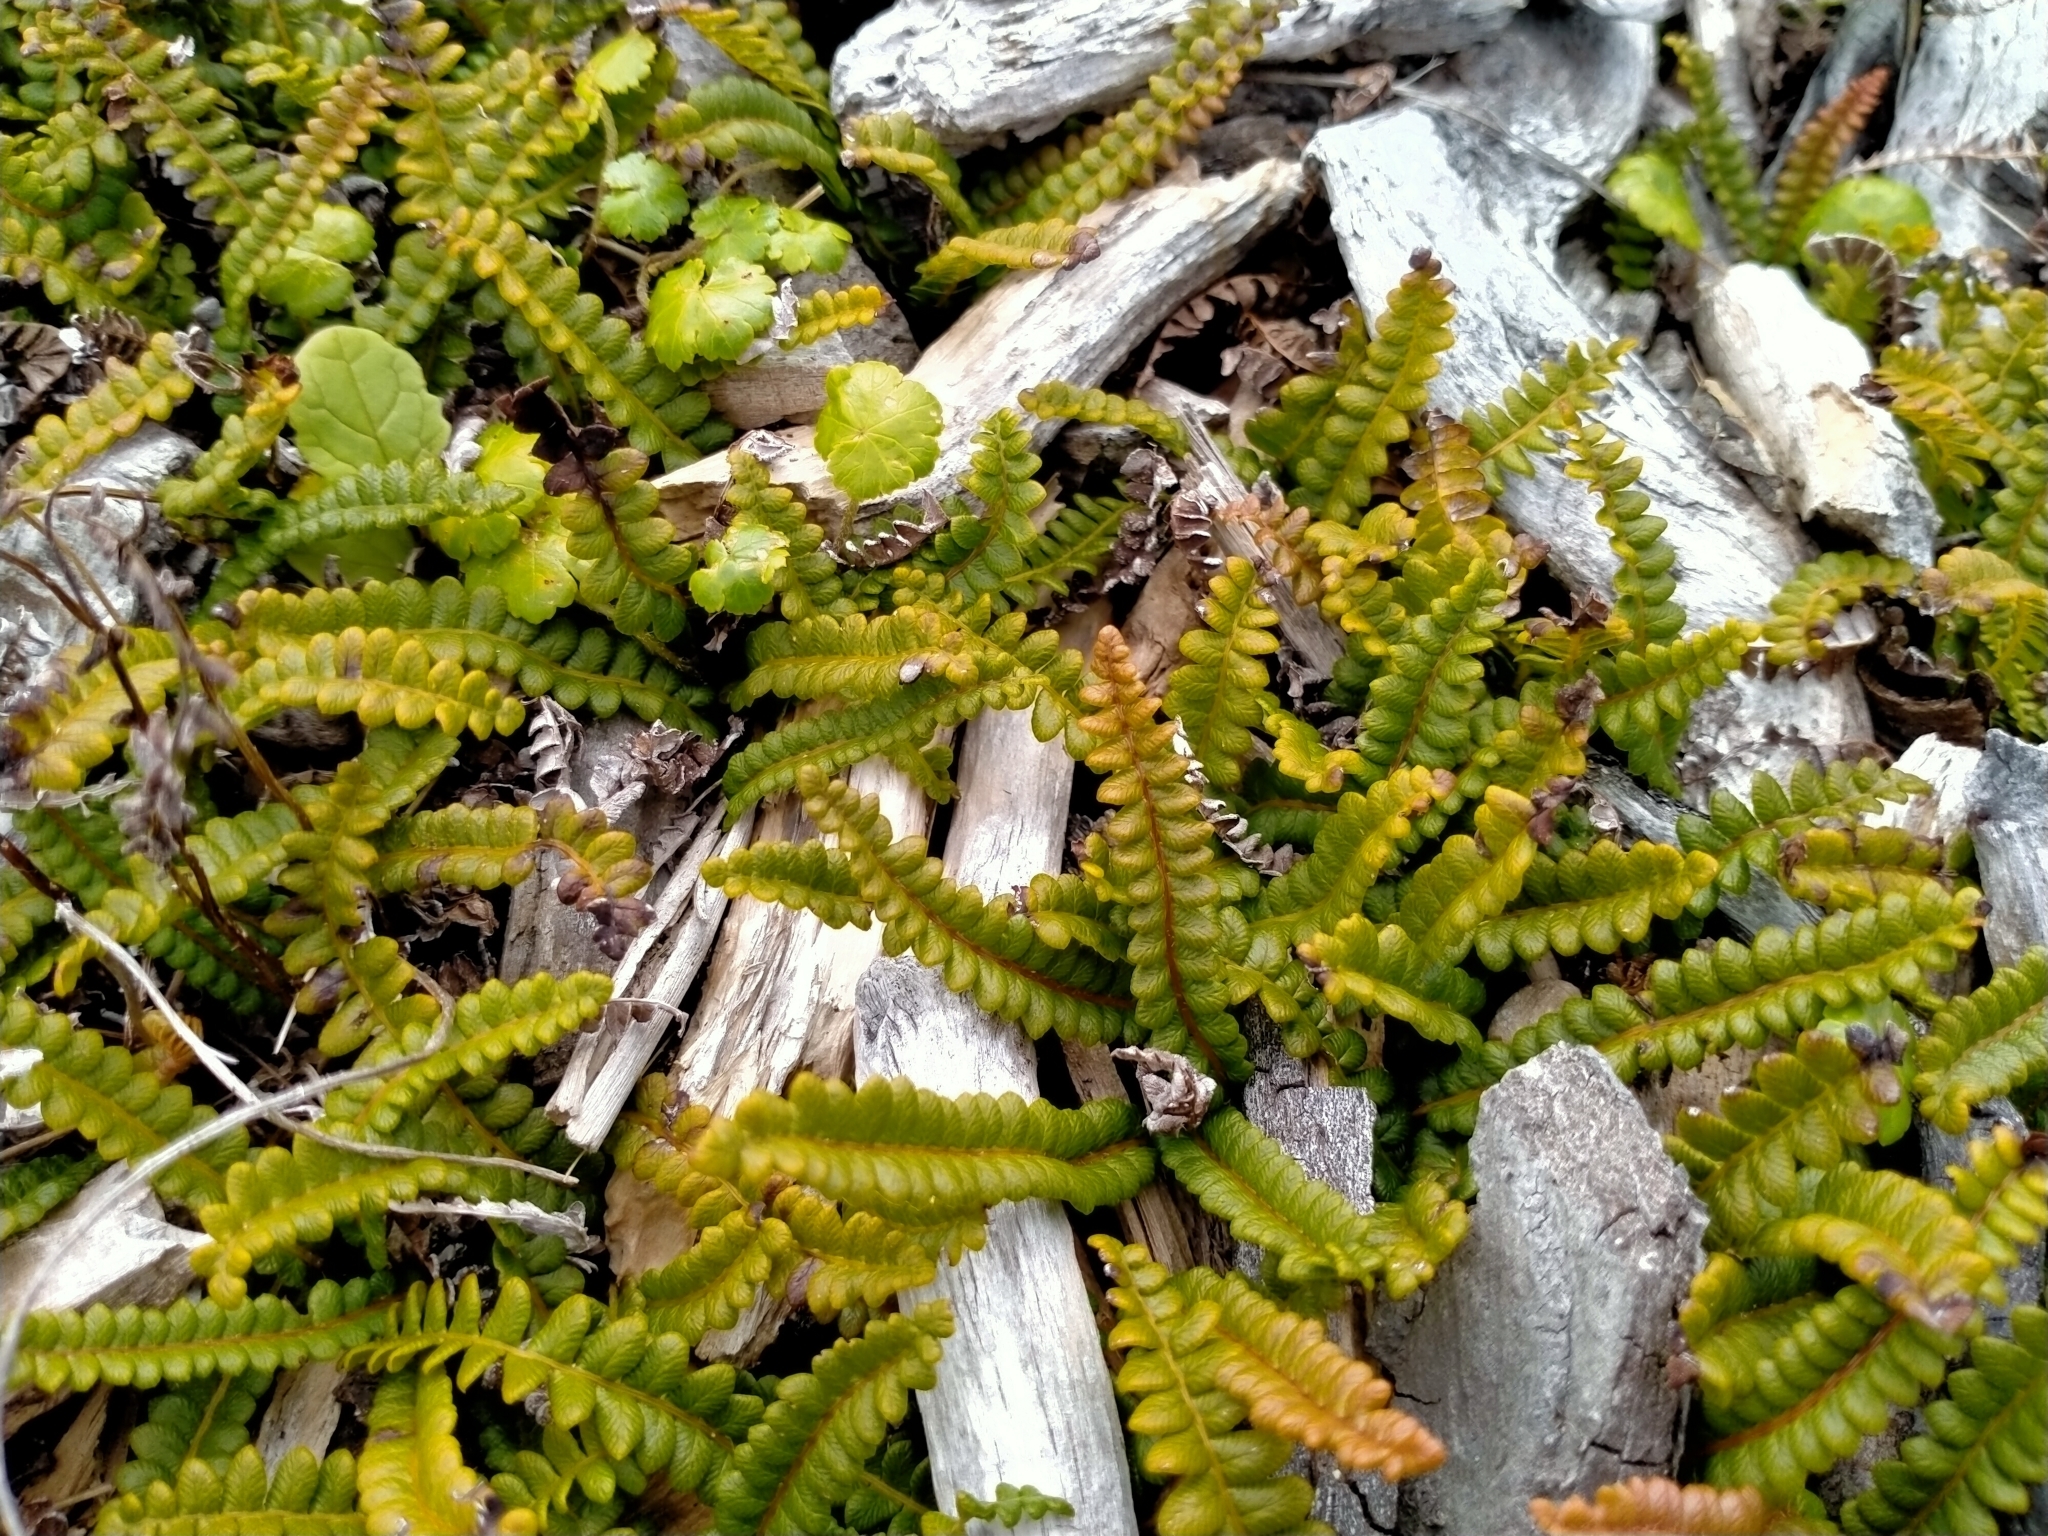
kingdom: Plantae
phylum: Tracheophyta
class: Polypodiopsida
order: Polypodiales
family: Blechnaceae
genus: Austroblechnum
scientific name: Austroblechnum penna-marina
